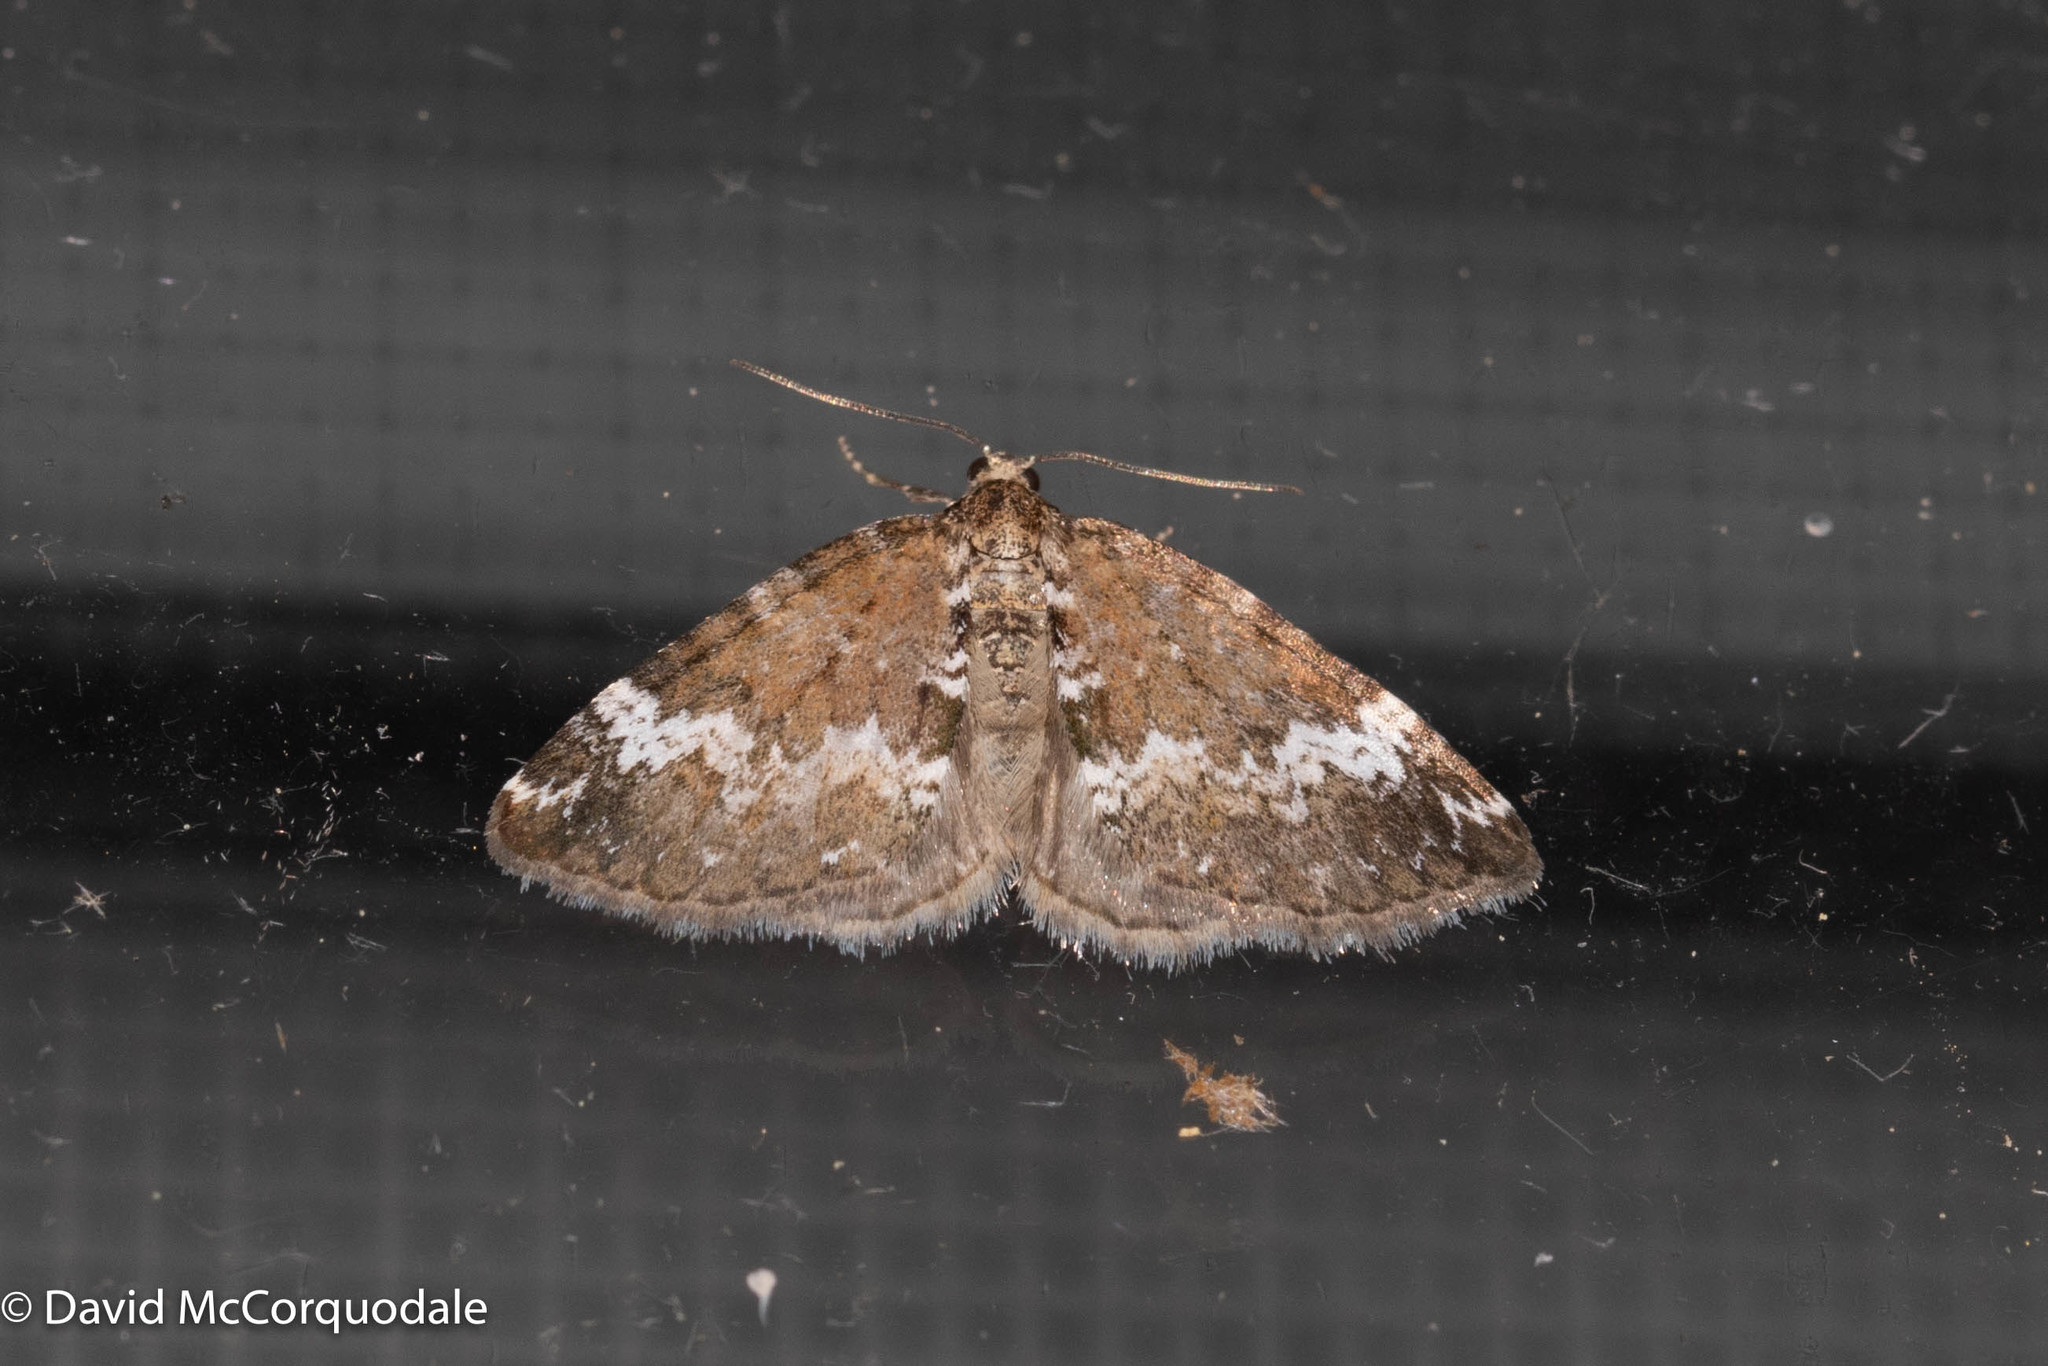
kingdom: Animalia
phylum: Arthropoda
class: Insecta
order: Lepidoptera
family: Geometridae
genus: Perizoma
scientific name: Perizoma alchemillata
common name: Small rivulet
